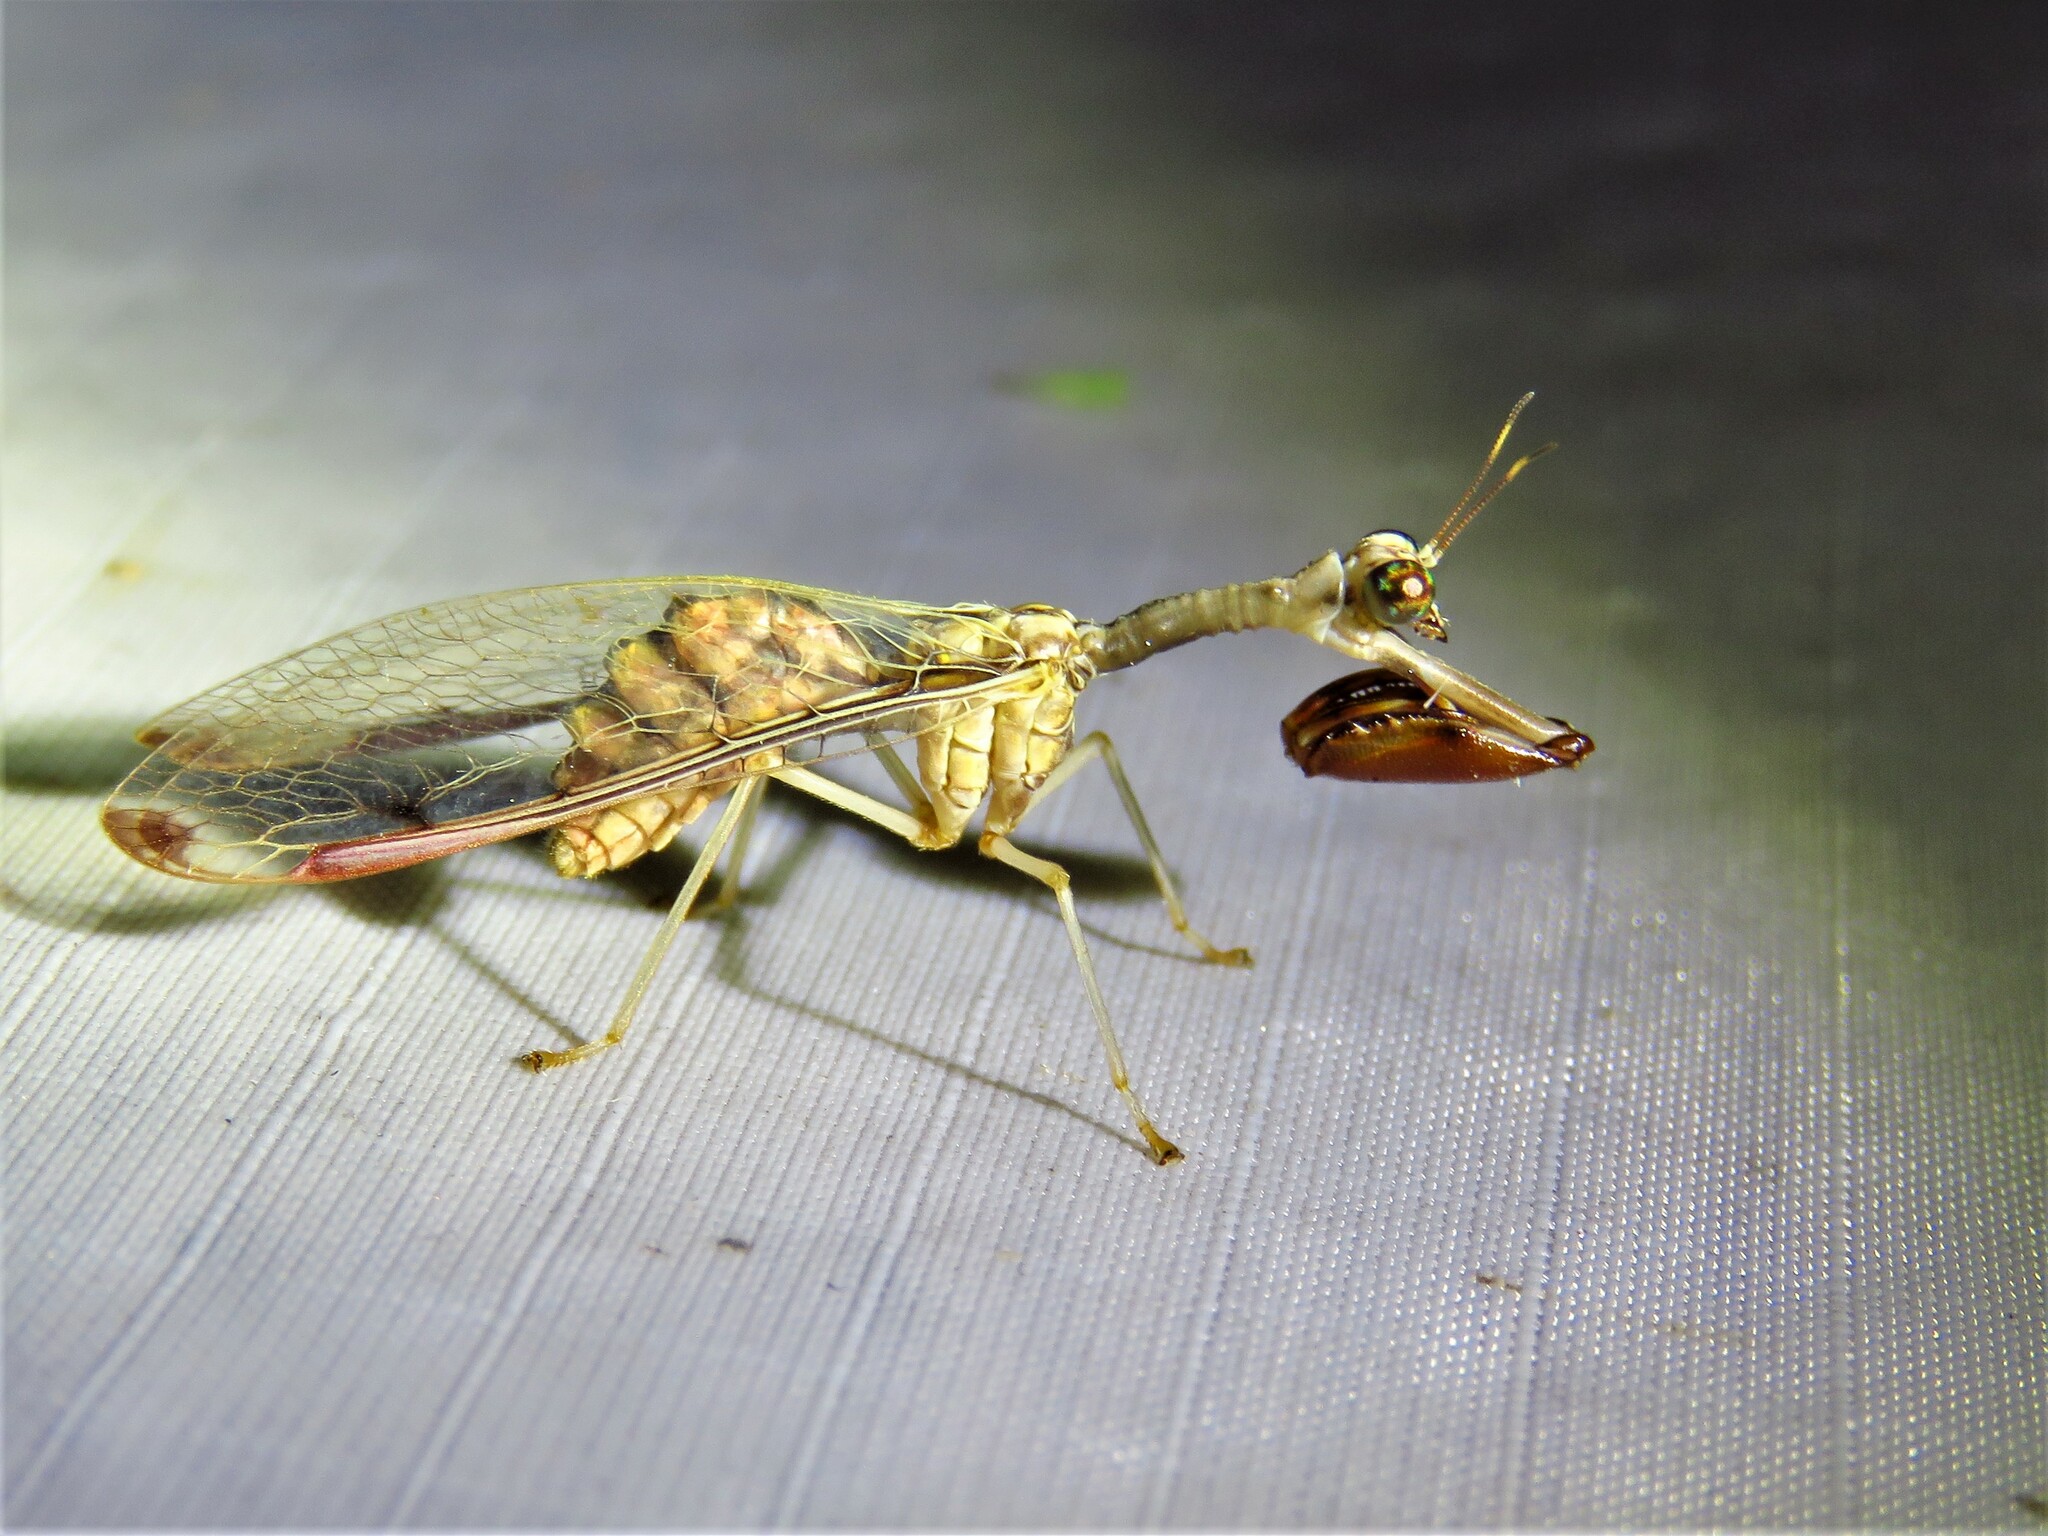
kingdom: Animalia
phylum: Arthropoda
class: Insecta
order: Neuroptera
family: Mantispidae
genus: Dicromantispa
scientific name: Dicromantispa interrupta
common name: Four-spotted mantidfly
